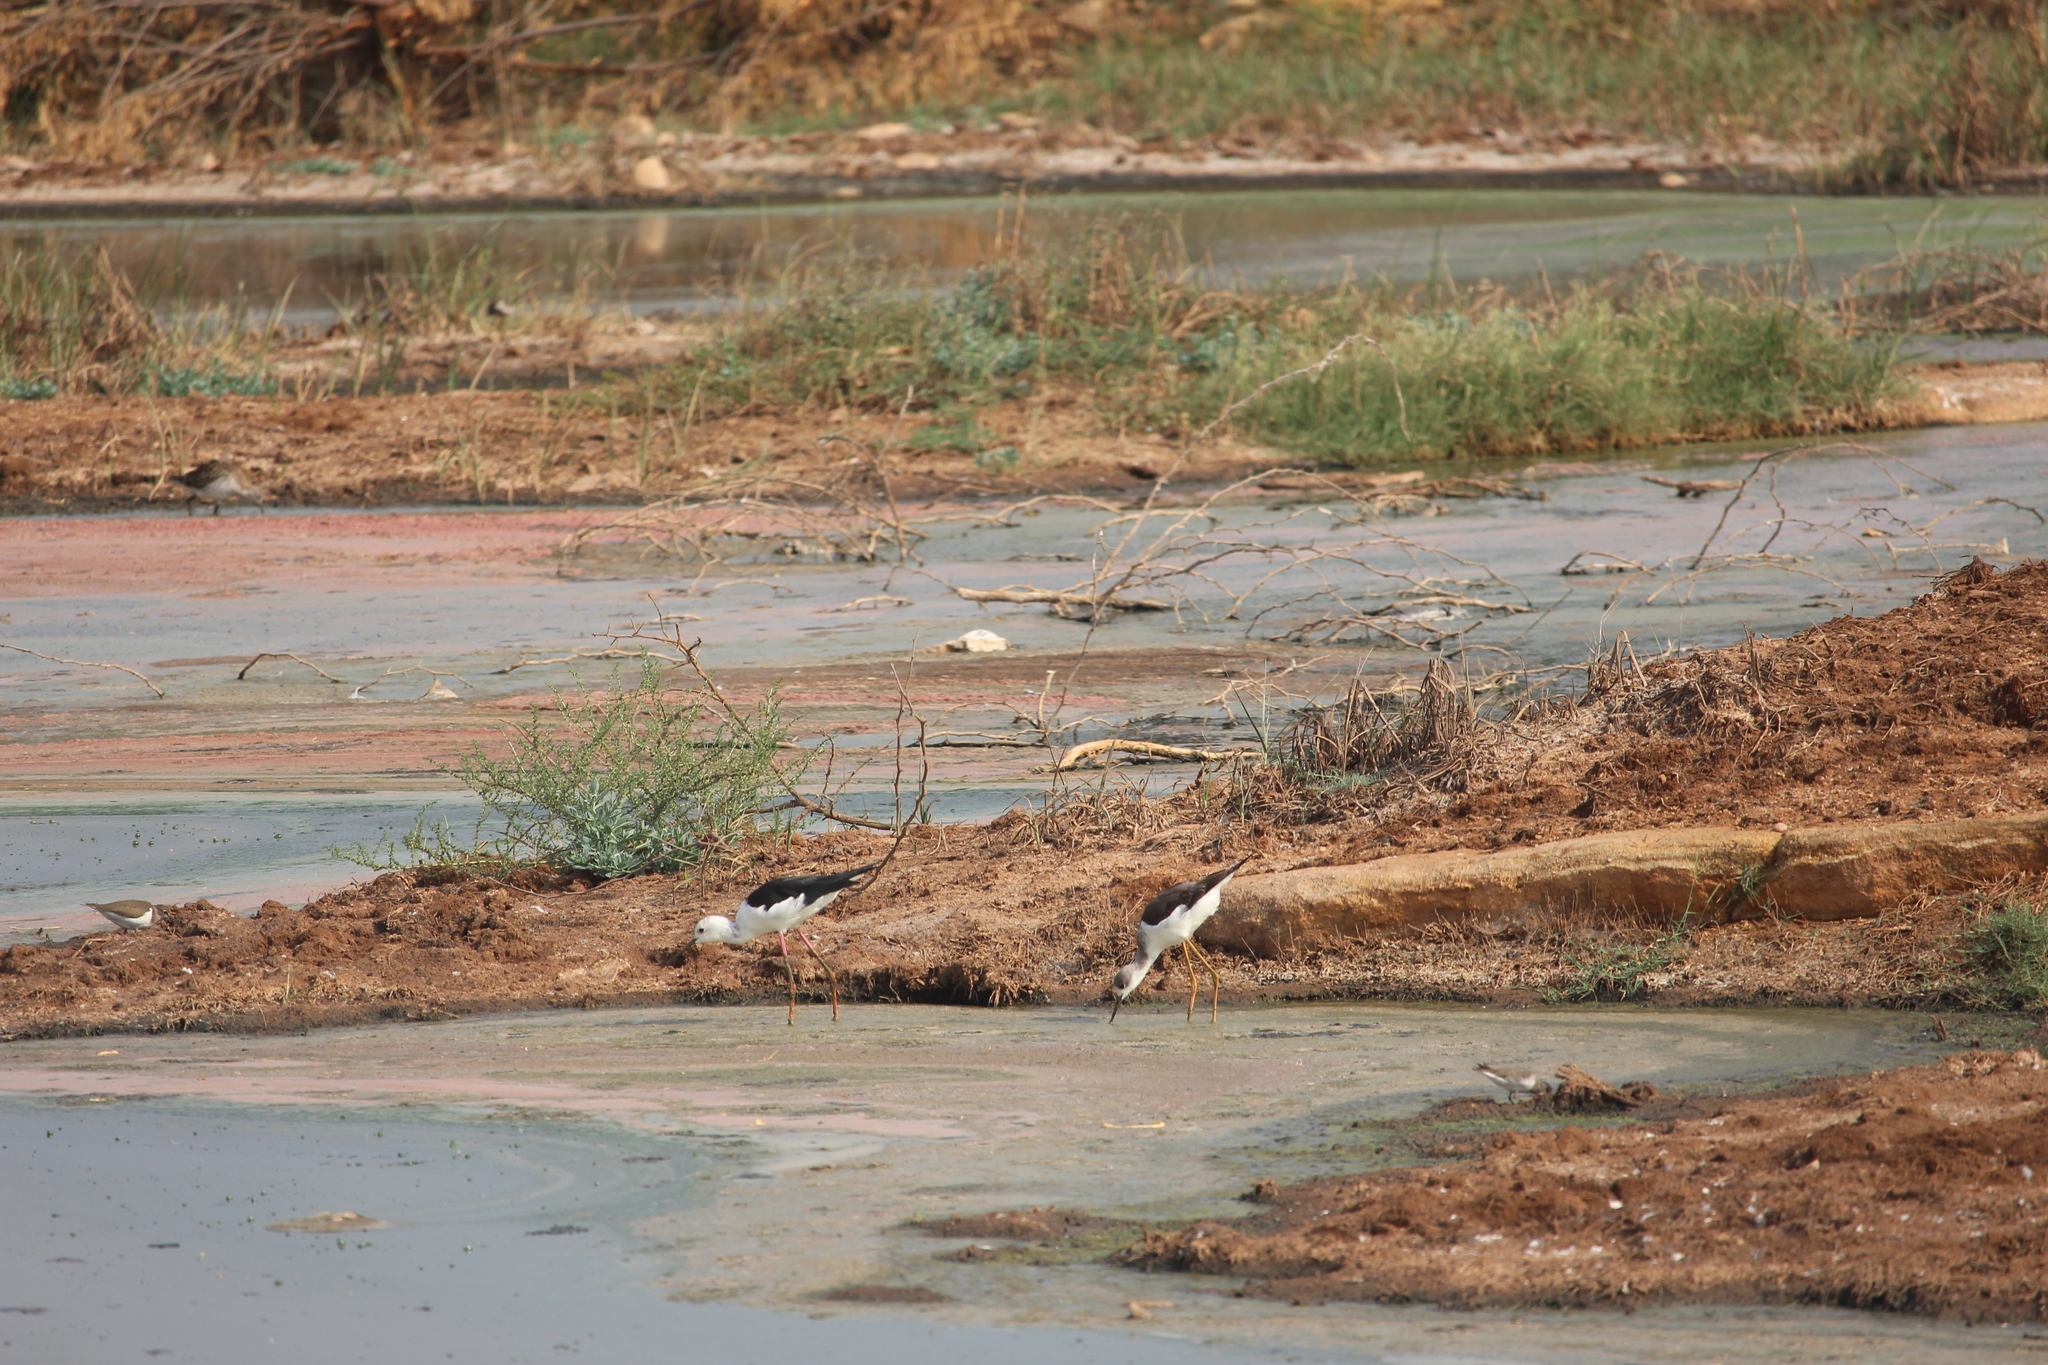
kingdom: Animalia
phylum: Chordata
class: Aves
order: Charadriiformes
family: Recurvirostridae
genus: Himantopus
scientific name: Himantopus himantopus
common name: Black-winged stilt
